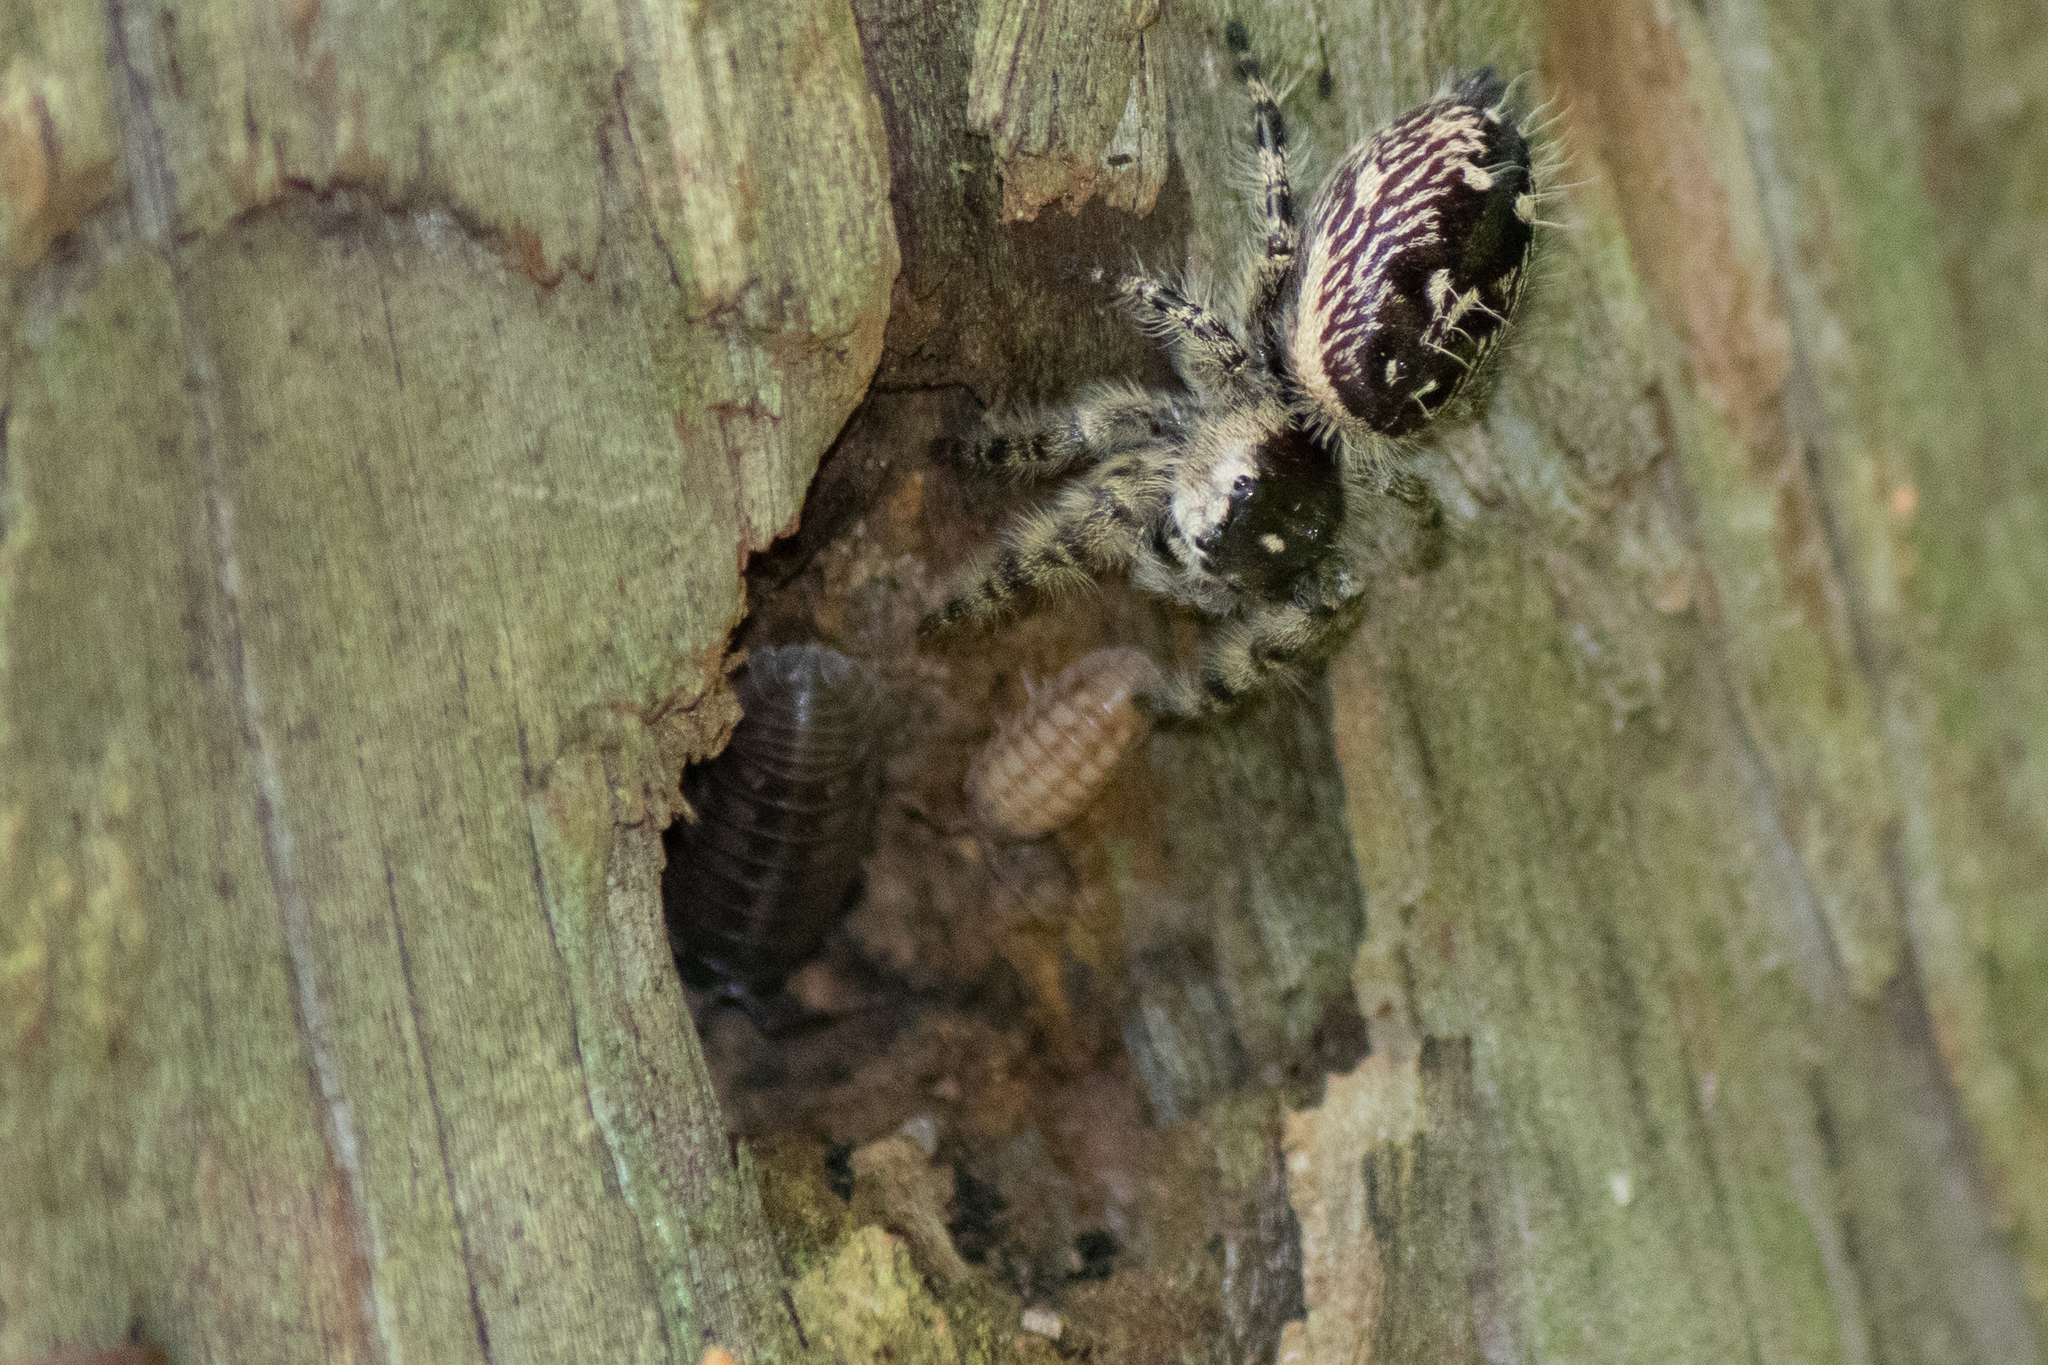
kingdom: Animalia
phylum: Arthropoda
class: Malacostraca
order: Isopoda
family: Armadillidiidae
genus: Armadillidium
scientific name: Armadillidium nasatum
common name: Isopod
